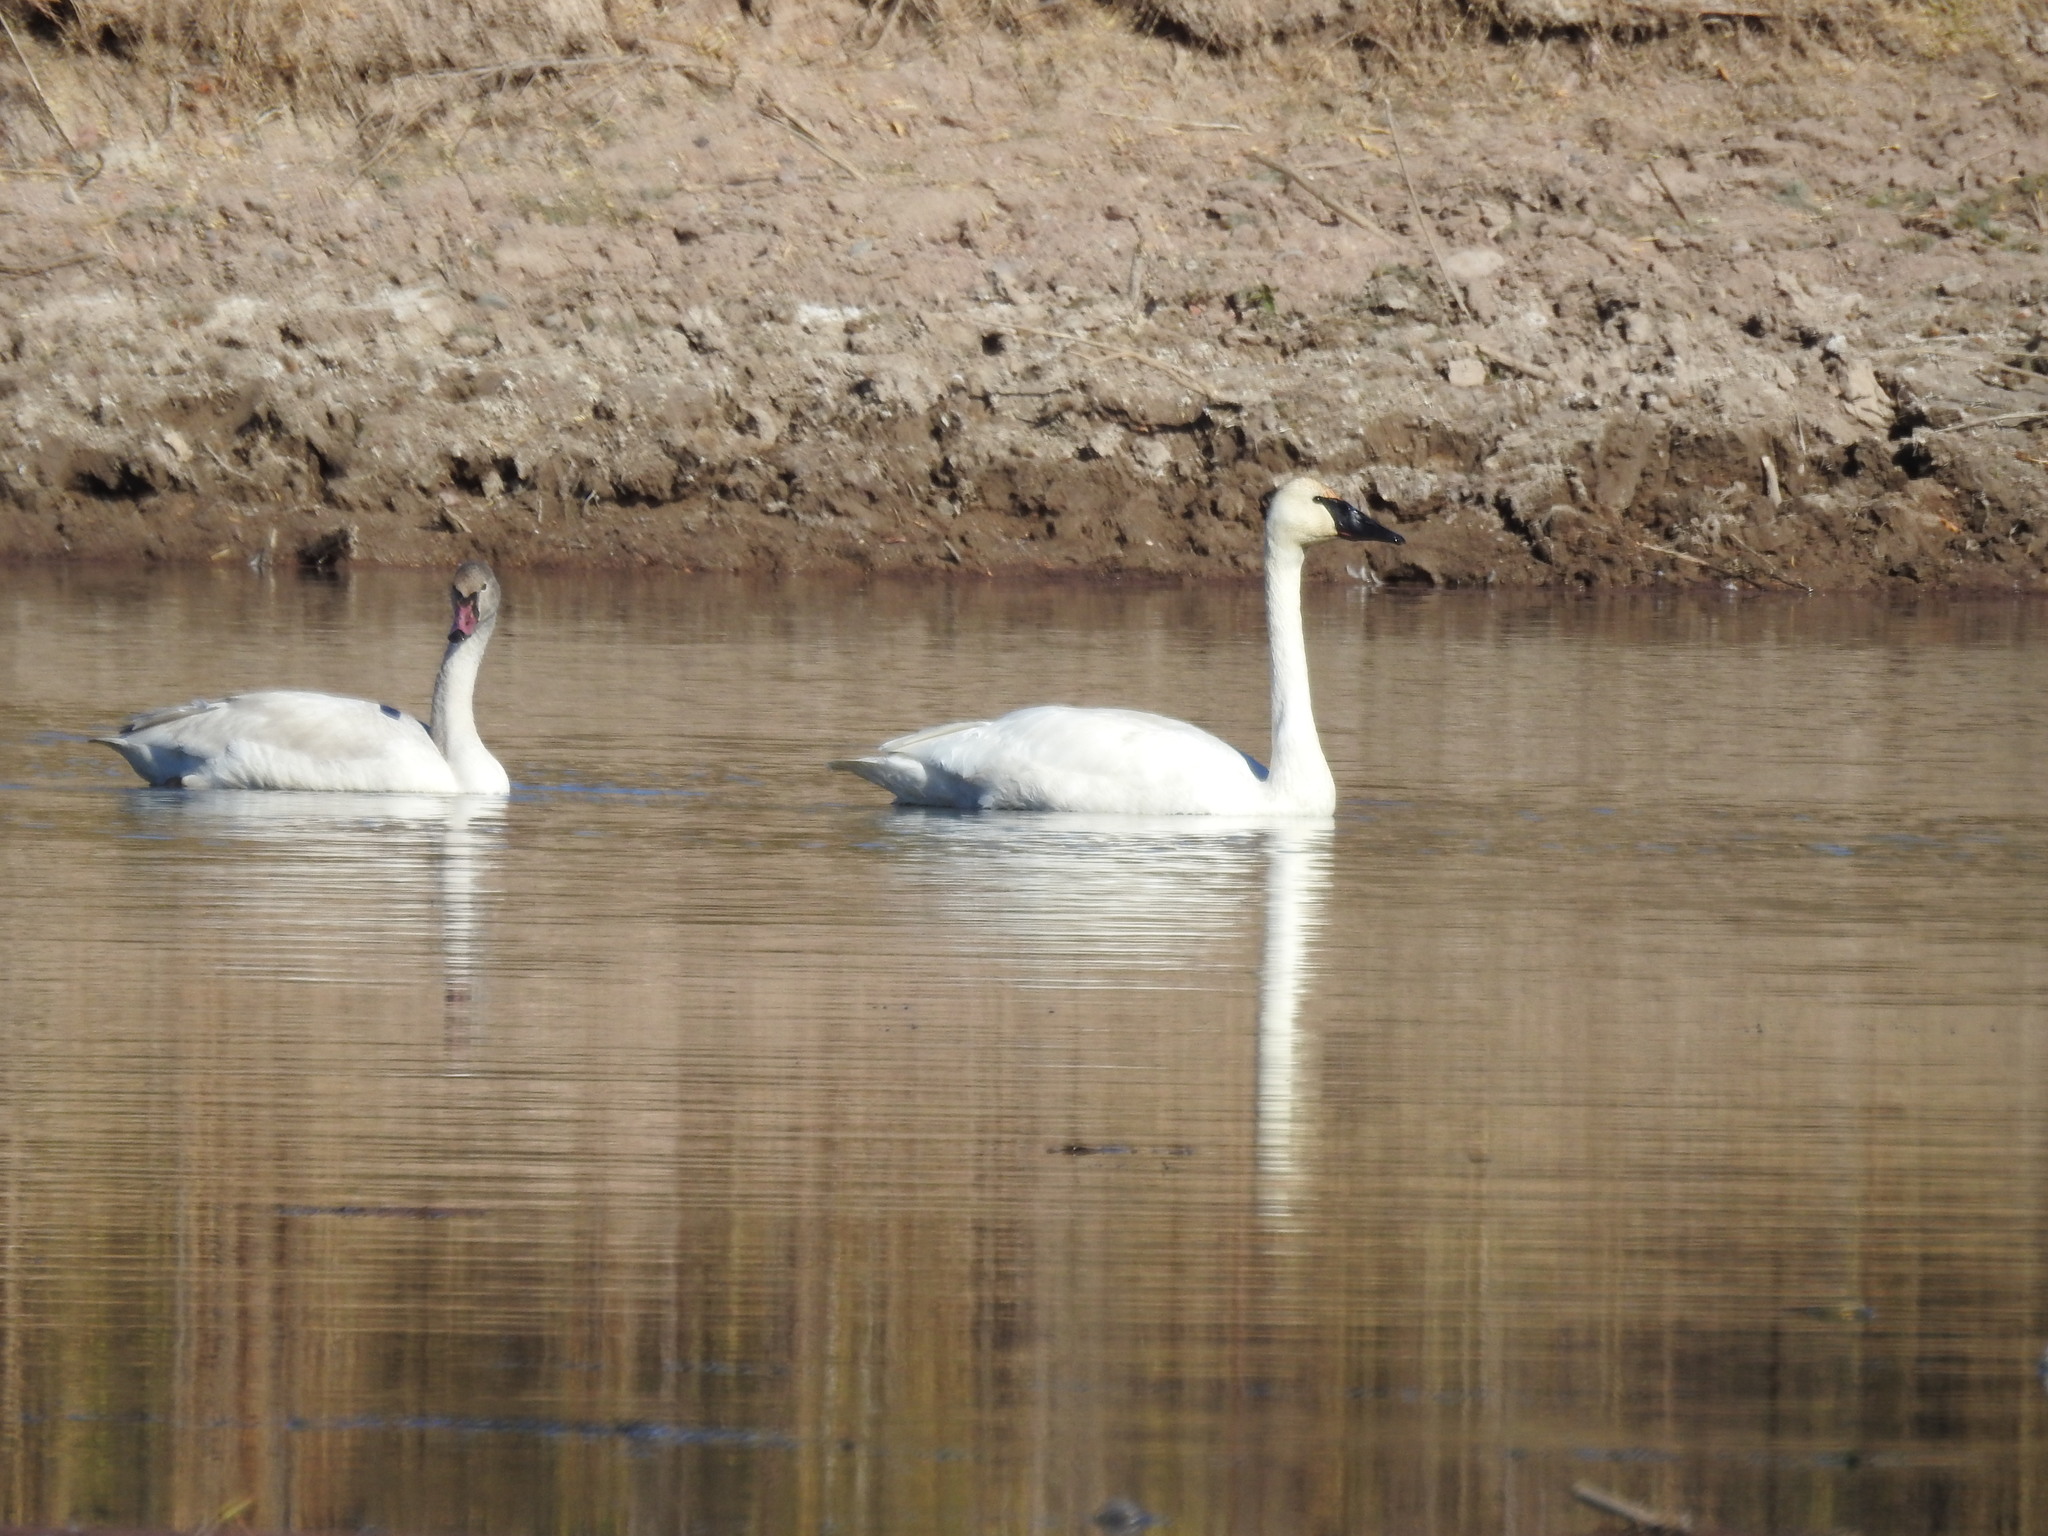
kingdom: Animalia
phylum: Chordata
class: Aves
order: Anseriformes
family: Anatidae
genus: Cygnus
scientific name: Cygnus buccinator
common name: Trumpeter swan
